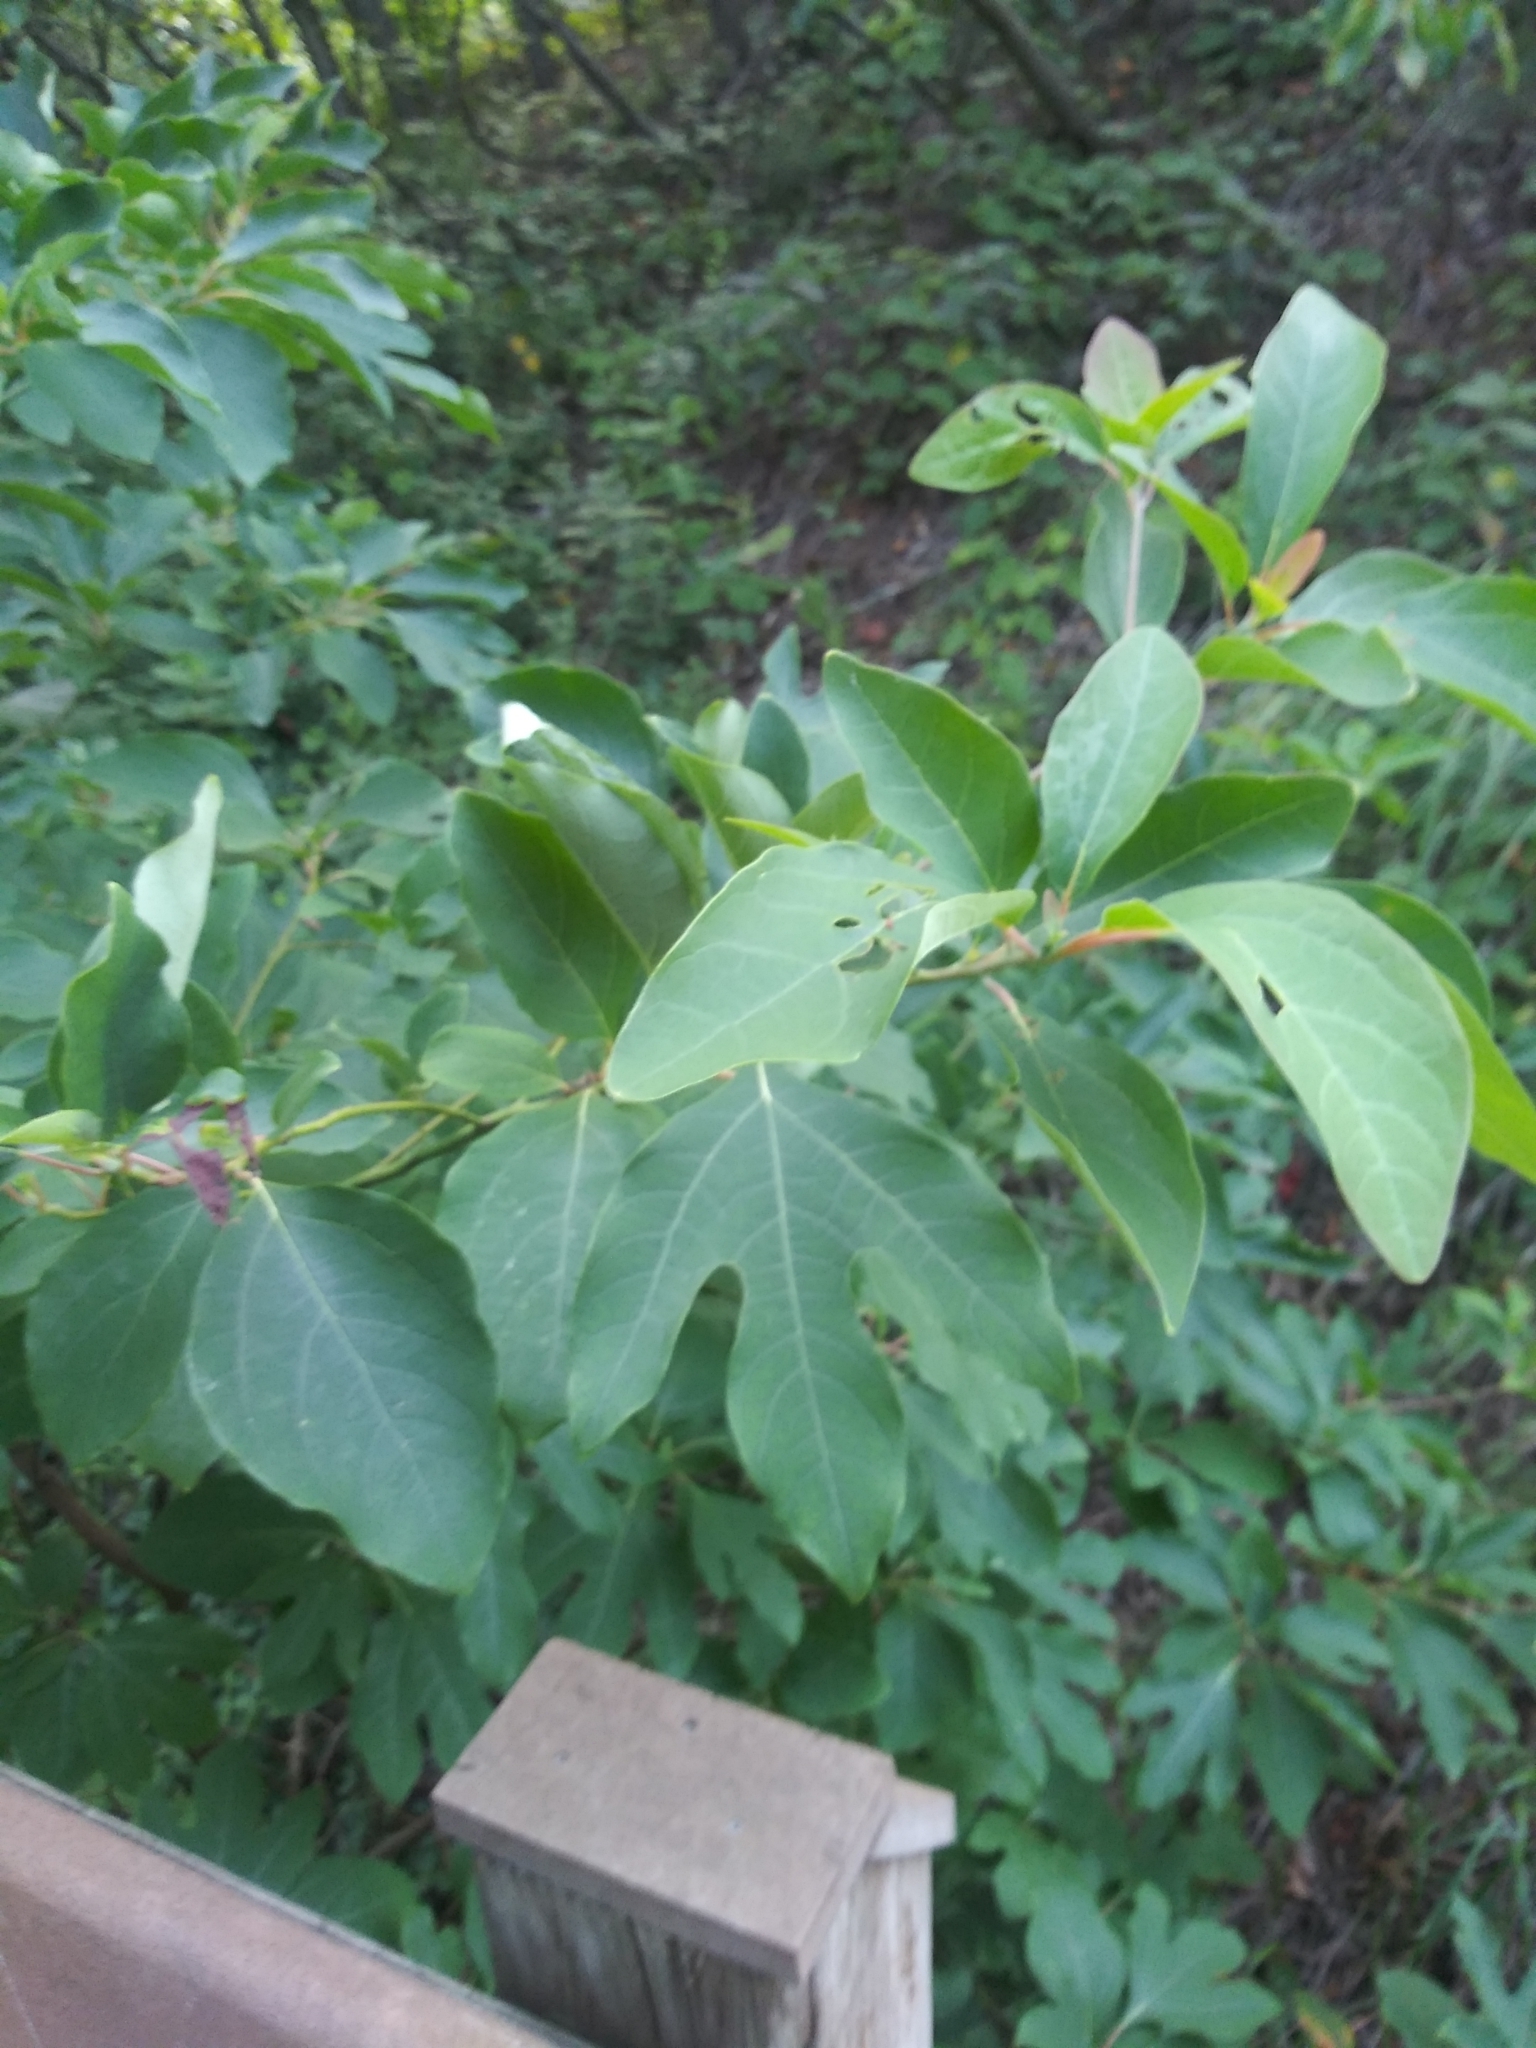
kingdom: Plantae
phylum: Tracheophyta
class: Magnoliopsida
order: Laurales
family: Lauraceae
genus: Sassafras
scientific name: Sassafras albidum
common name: Sassafras
